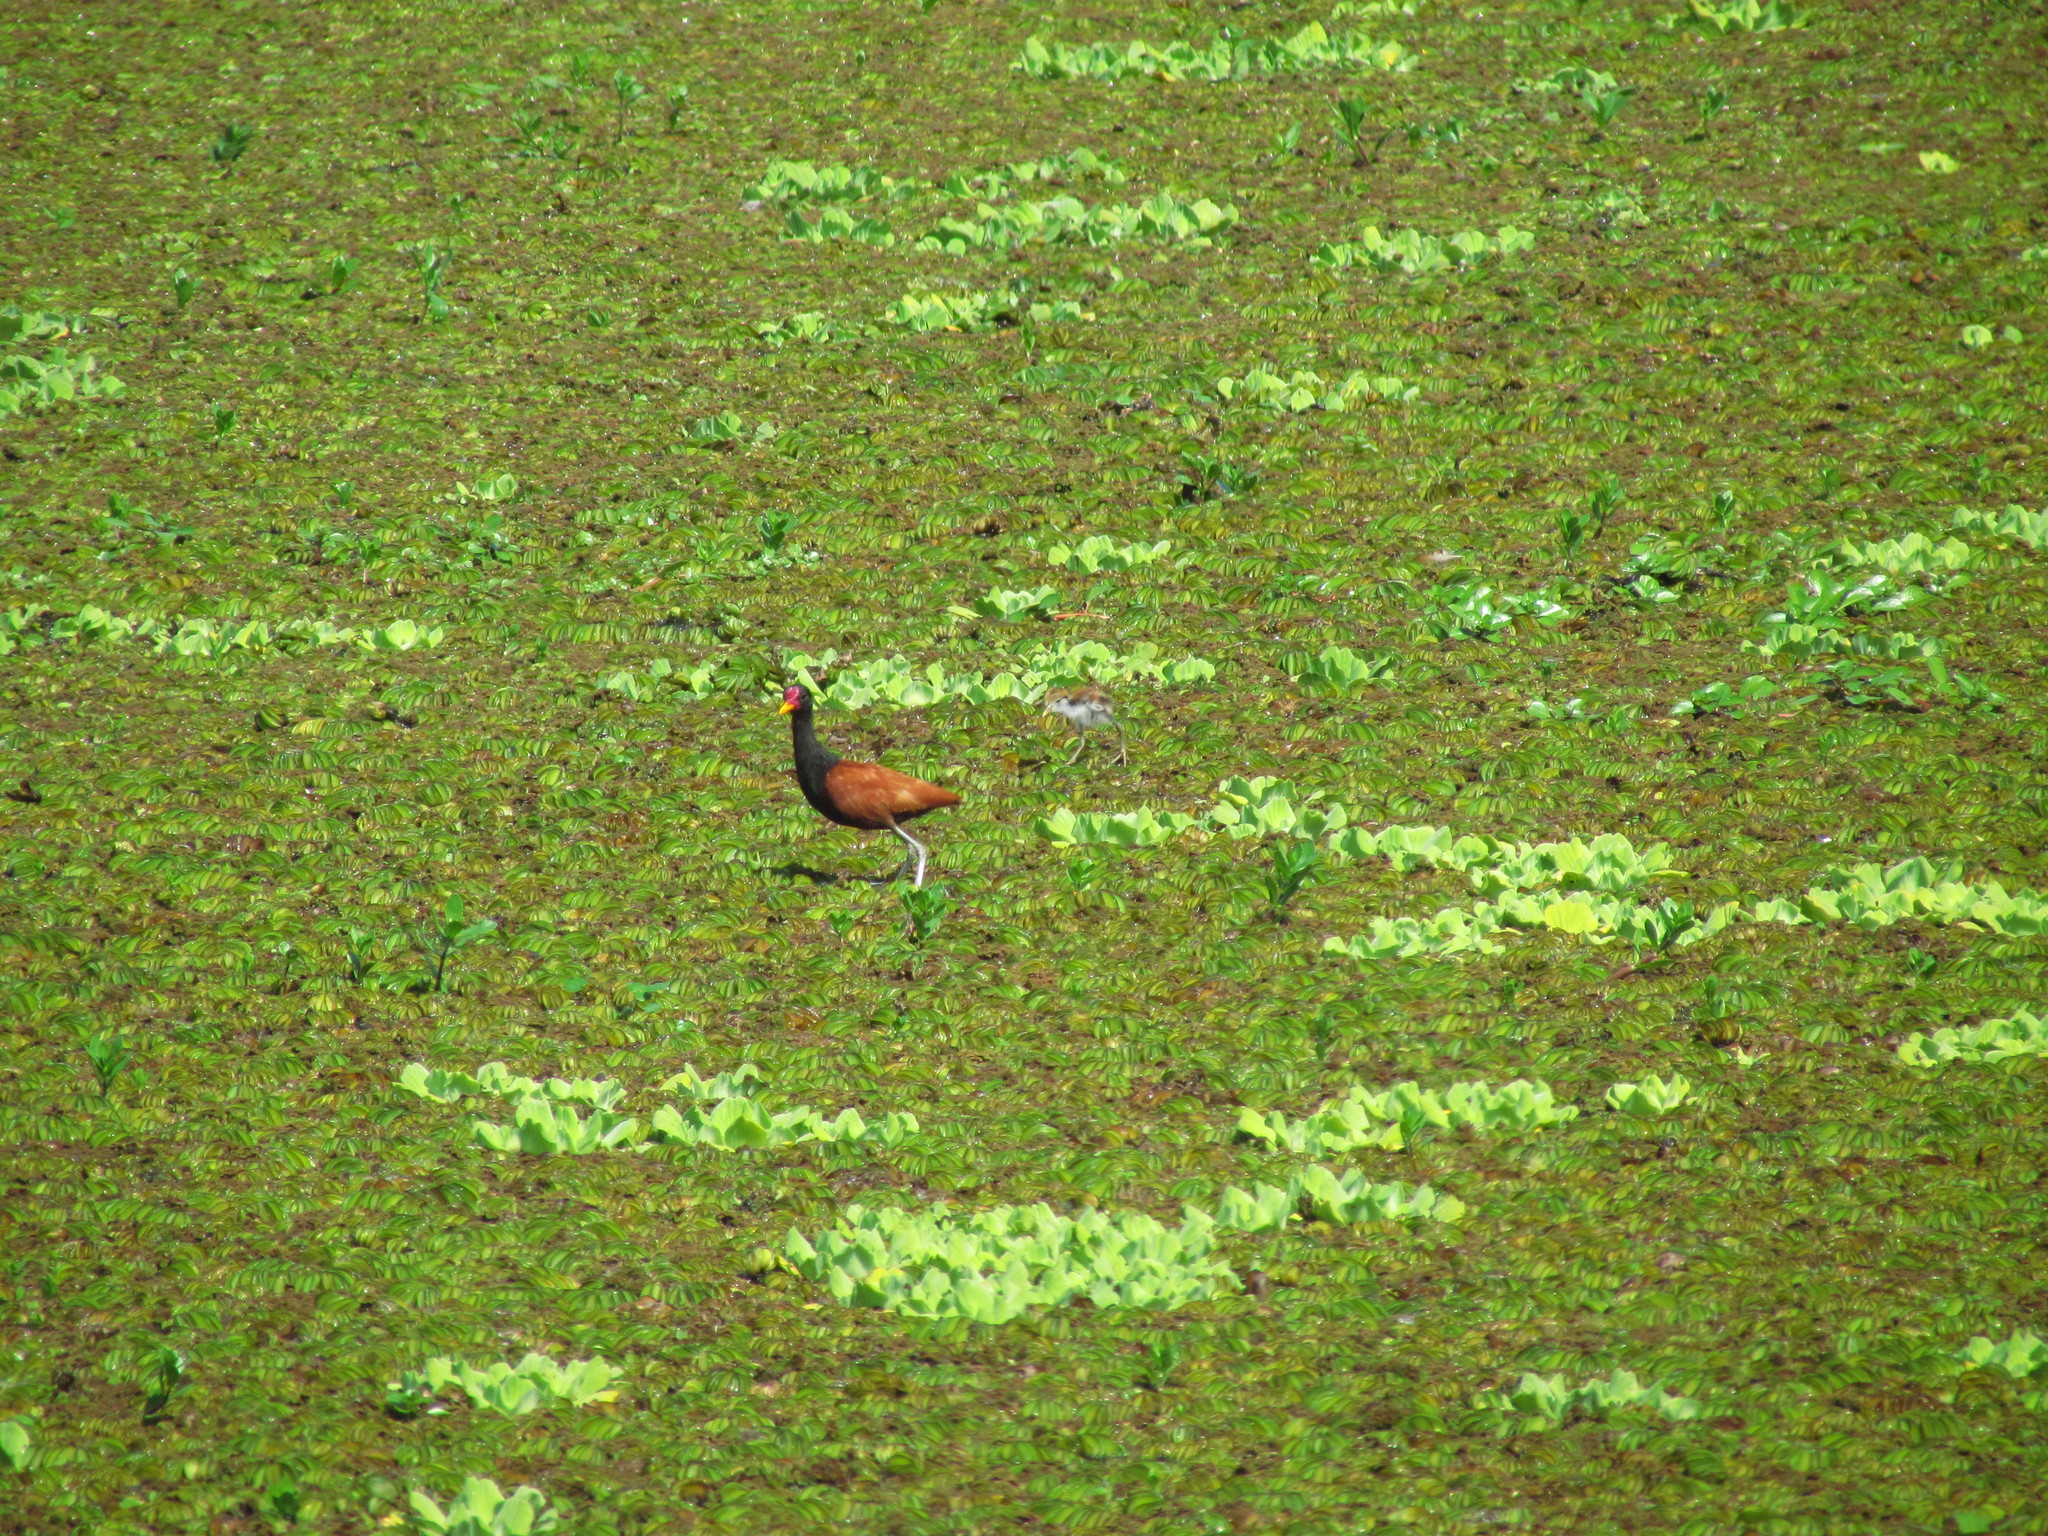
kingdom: Animalia
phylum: Chordata
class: Aves
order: Charadriiformes
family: Jacanidae
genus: Jacana
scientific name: Jacana jacana
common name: Wattled jacana
